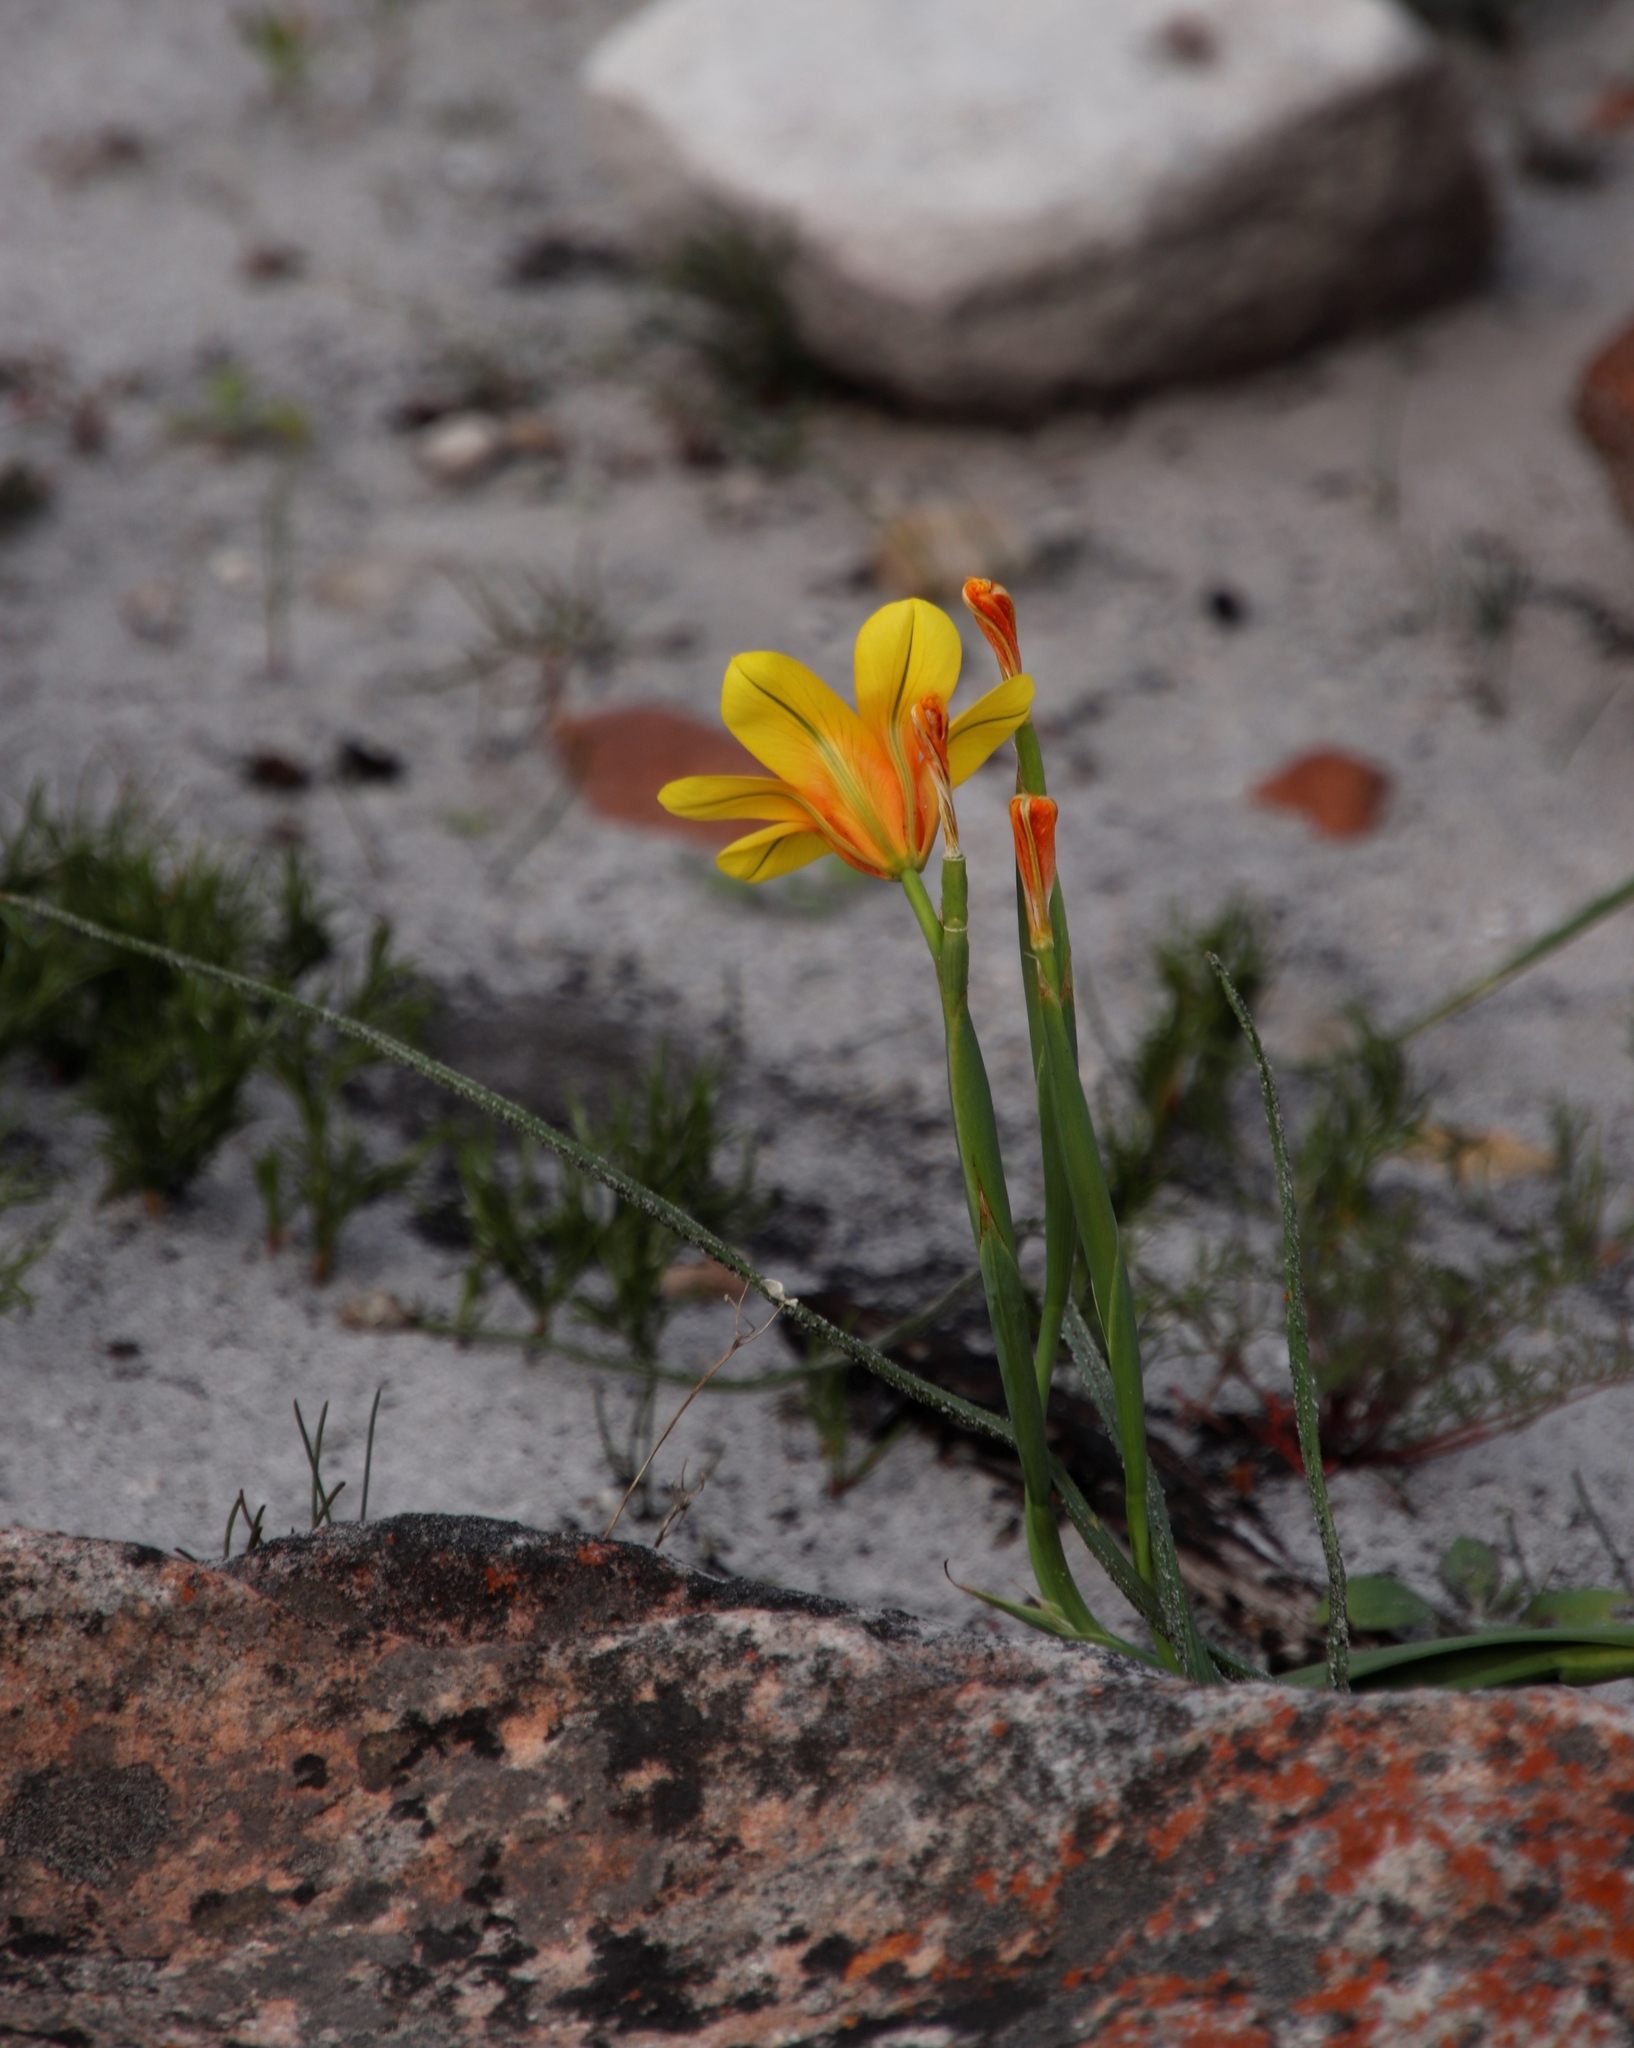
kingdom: Plantae
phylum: Tracheophyta
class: Liliopsida
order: Asparagales
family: Iridaceae
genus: Moraea
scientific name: Moraea ochroleuca
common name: Red tulp
